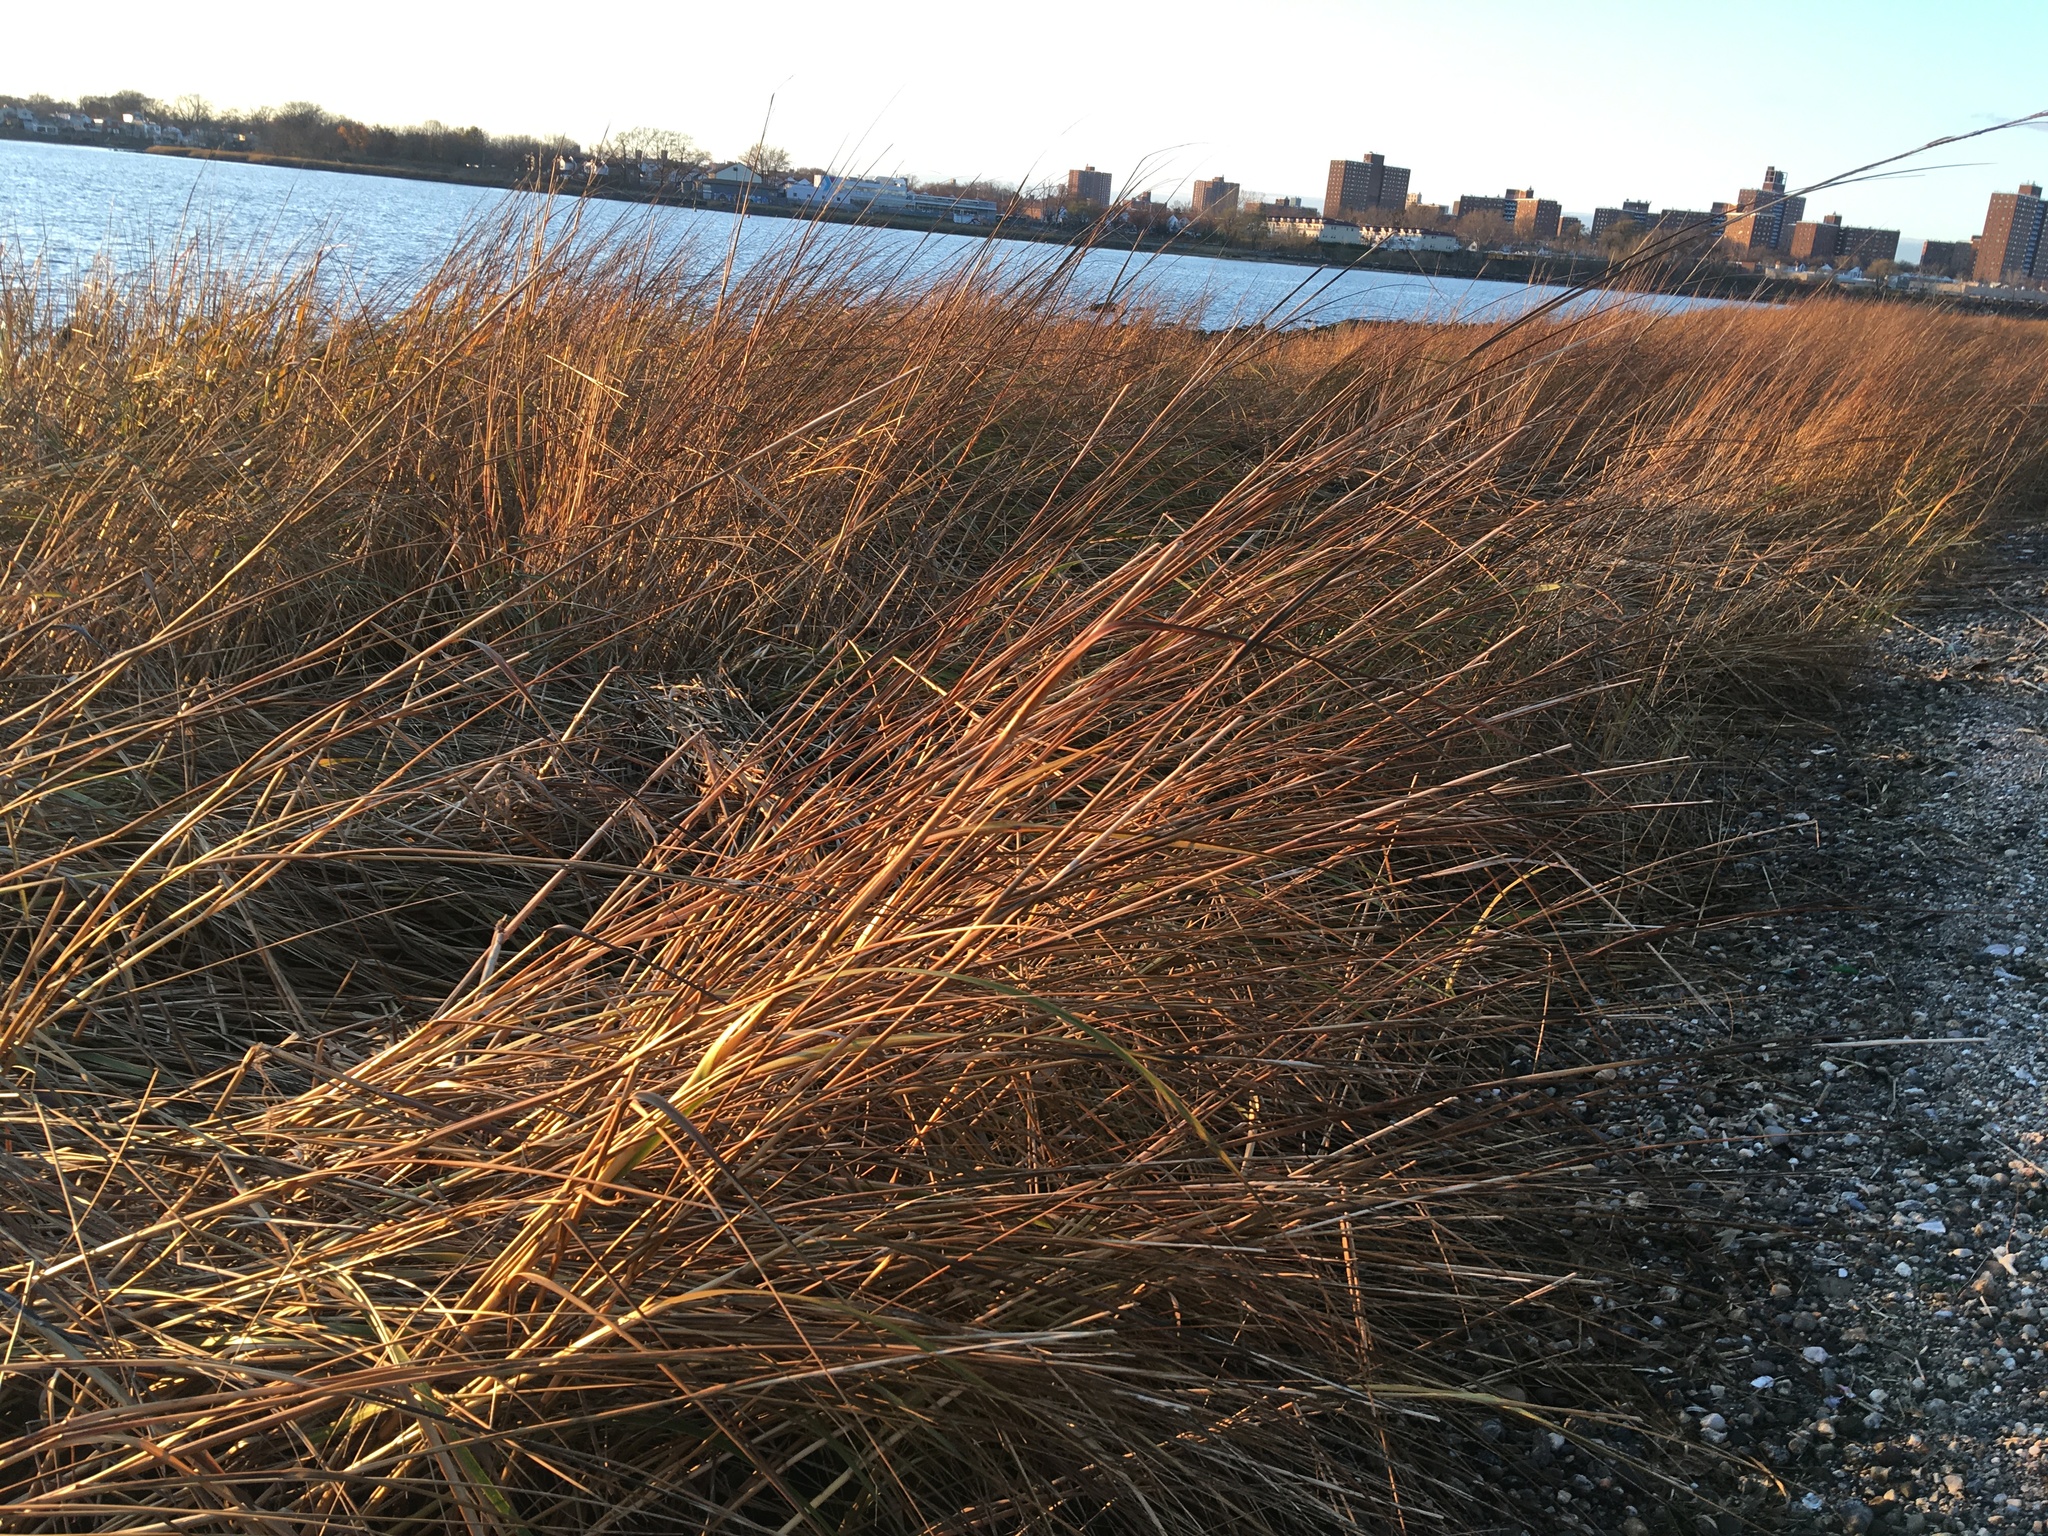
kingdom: Plantae
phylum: Tracheophyta
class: Liliopsida
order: Poales
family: Poaceae
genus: Sporobolus
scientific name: Sporobolus alterniflorus
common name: Atlantic cordgrass
